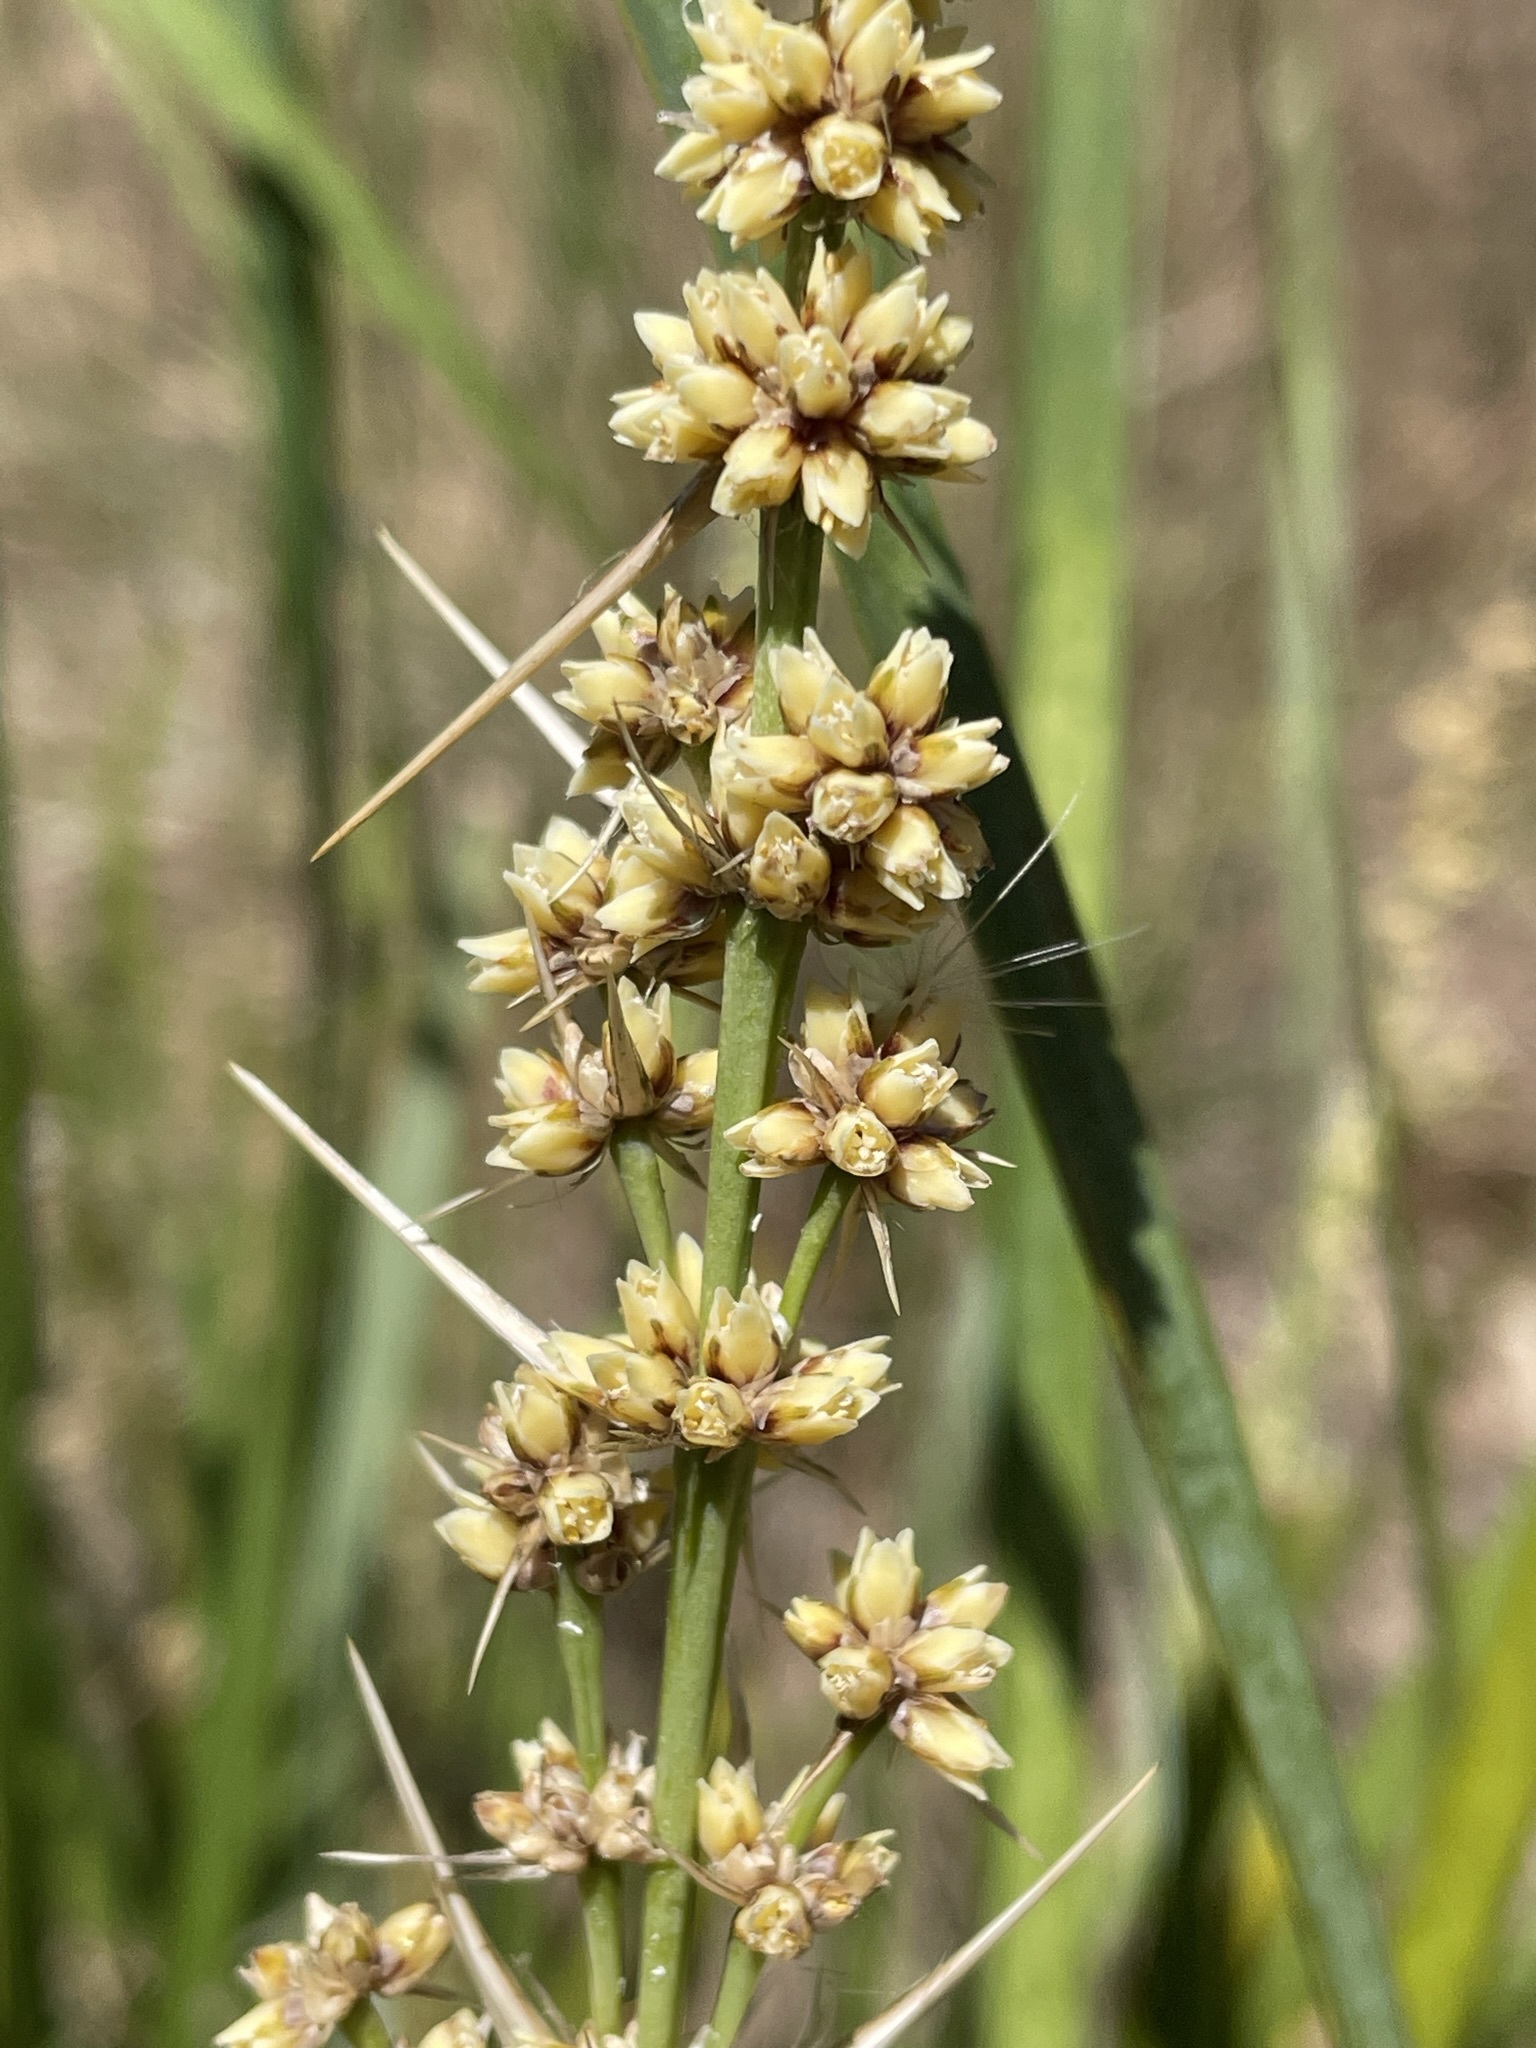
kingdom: Plantae
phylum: Tracheophyta
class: Liliopsida
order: Asparagales
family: Asparagaceae
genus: Lomandra
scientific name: Lomandra longifolia
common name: Longleaf mat-rush
